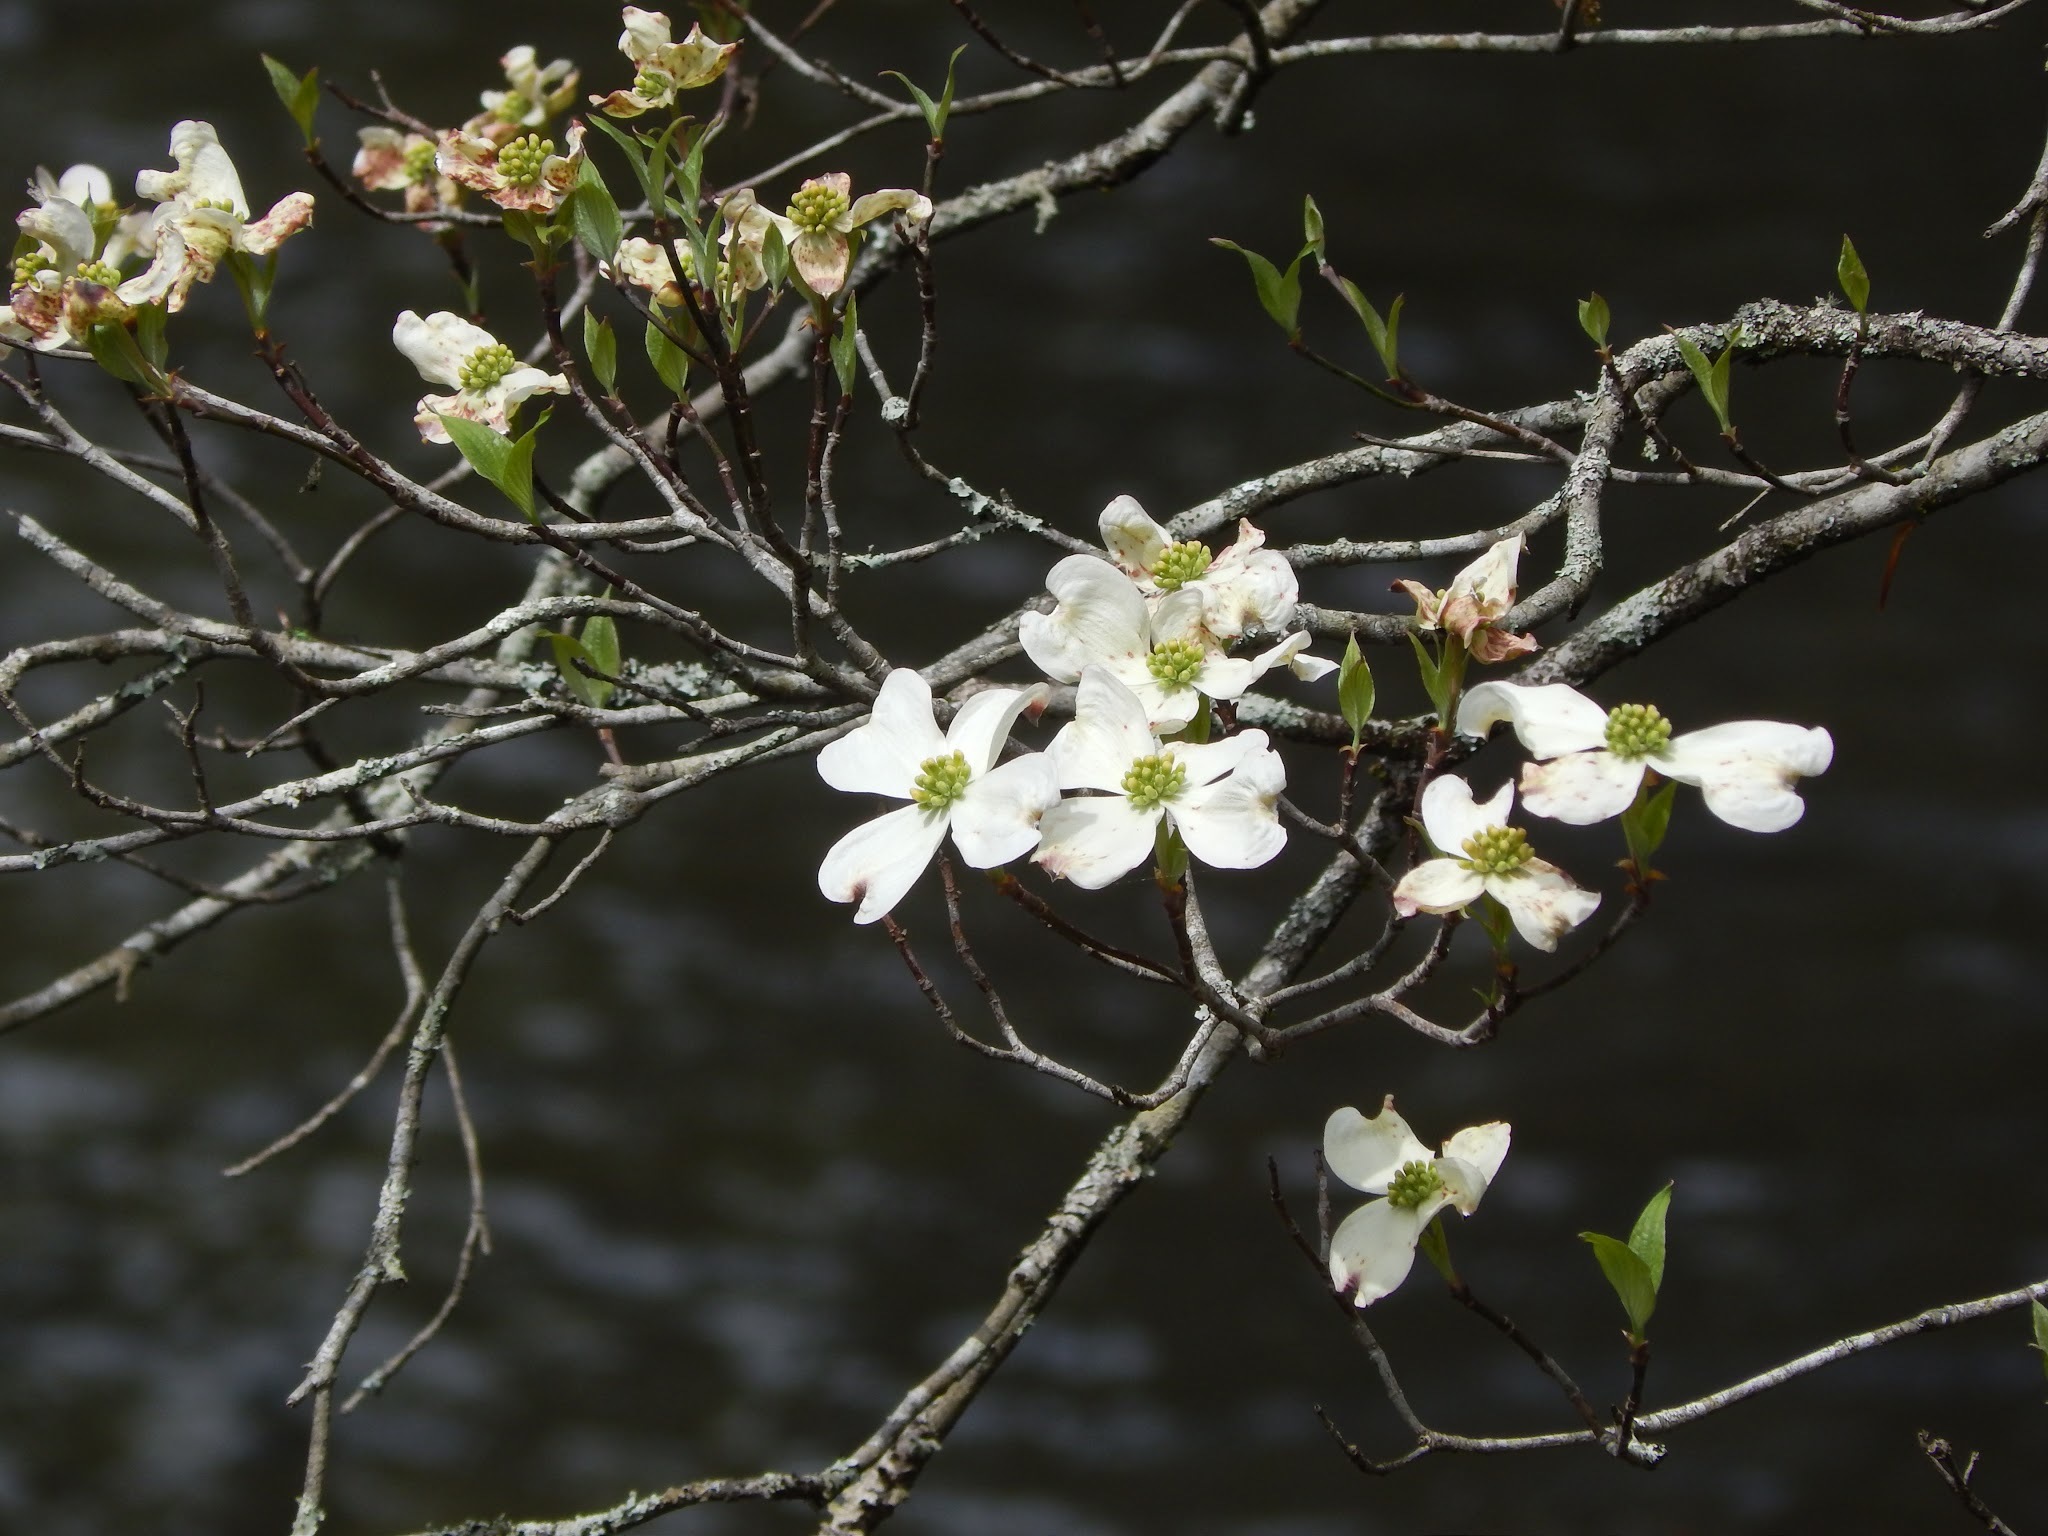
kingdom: Plantae
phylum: Tracheophyta
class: Magnoliopsida
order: Cornales
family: Cornaceae
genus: Cornus
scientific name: Cornus florida
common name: Flowering dogwood
